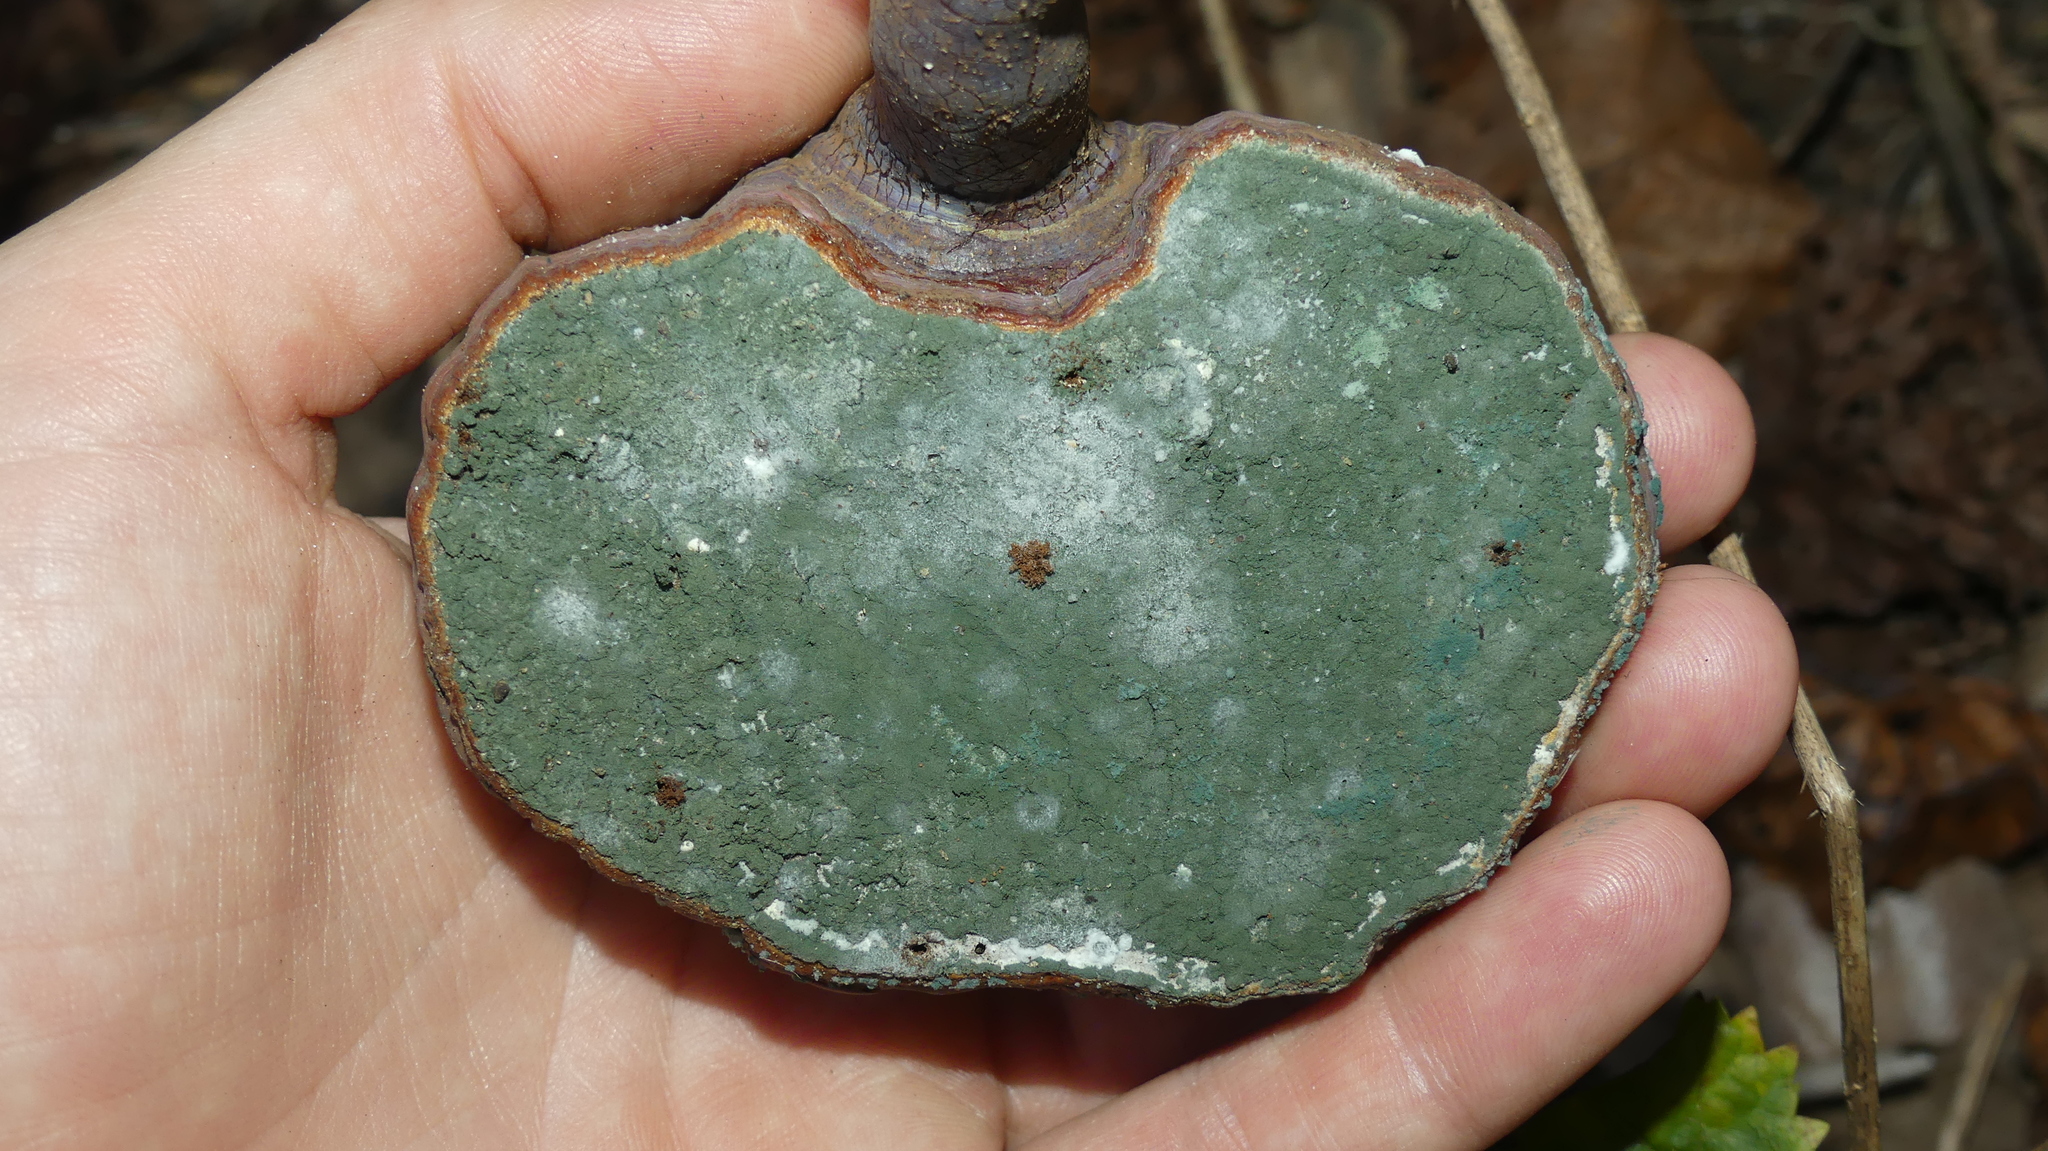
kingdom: Fungi
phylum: Basidiomycota
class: Agaricomycetes
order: Polyporales
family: Polyporaceae
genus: Ganoderma
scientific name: Ganoderma curtisii
